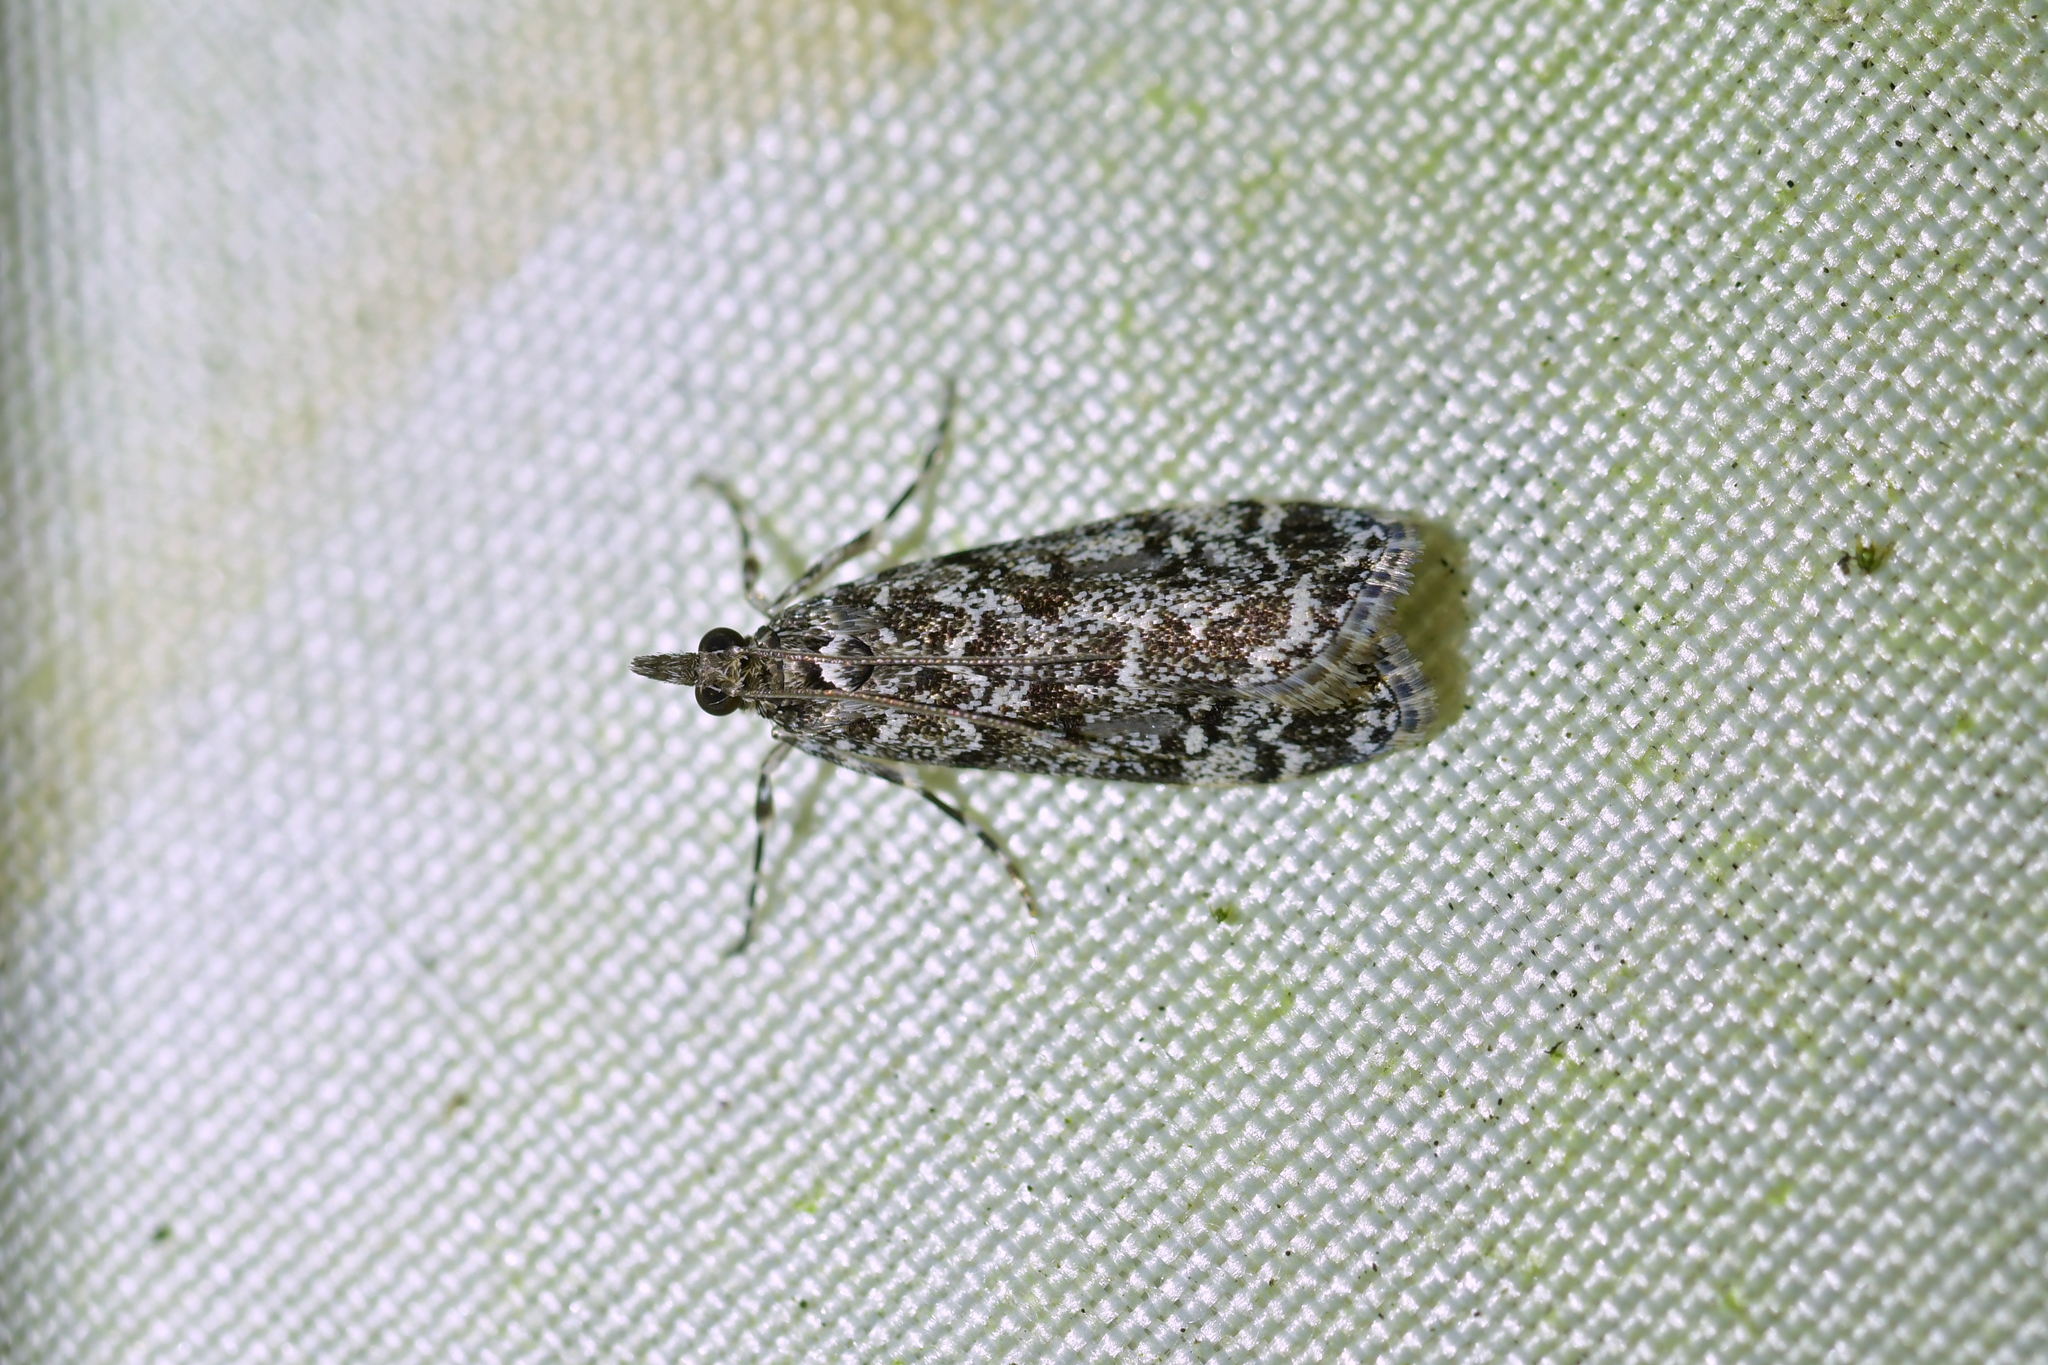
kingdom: Animalia
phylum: Arthropoda
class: Insecta
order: Lepidoptera
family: Crambidae
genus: Eudonia
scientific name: Eudonia philerga
